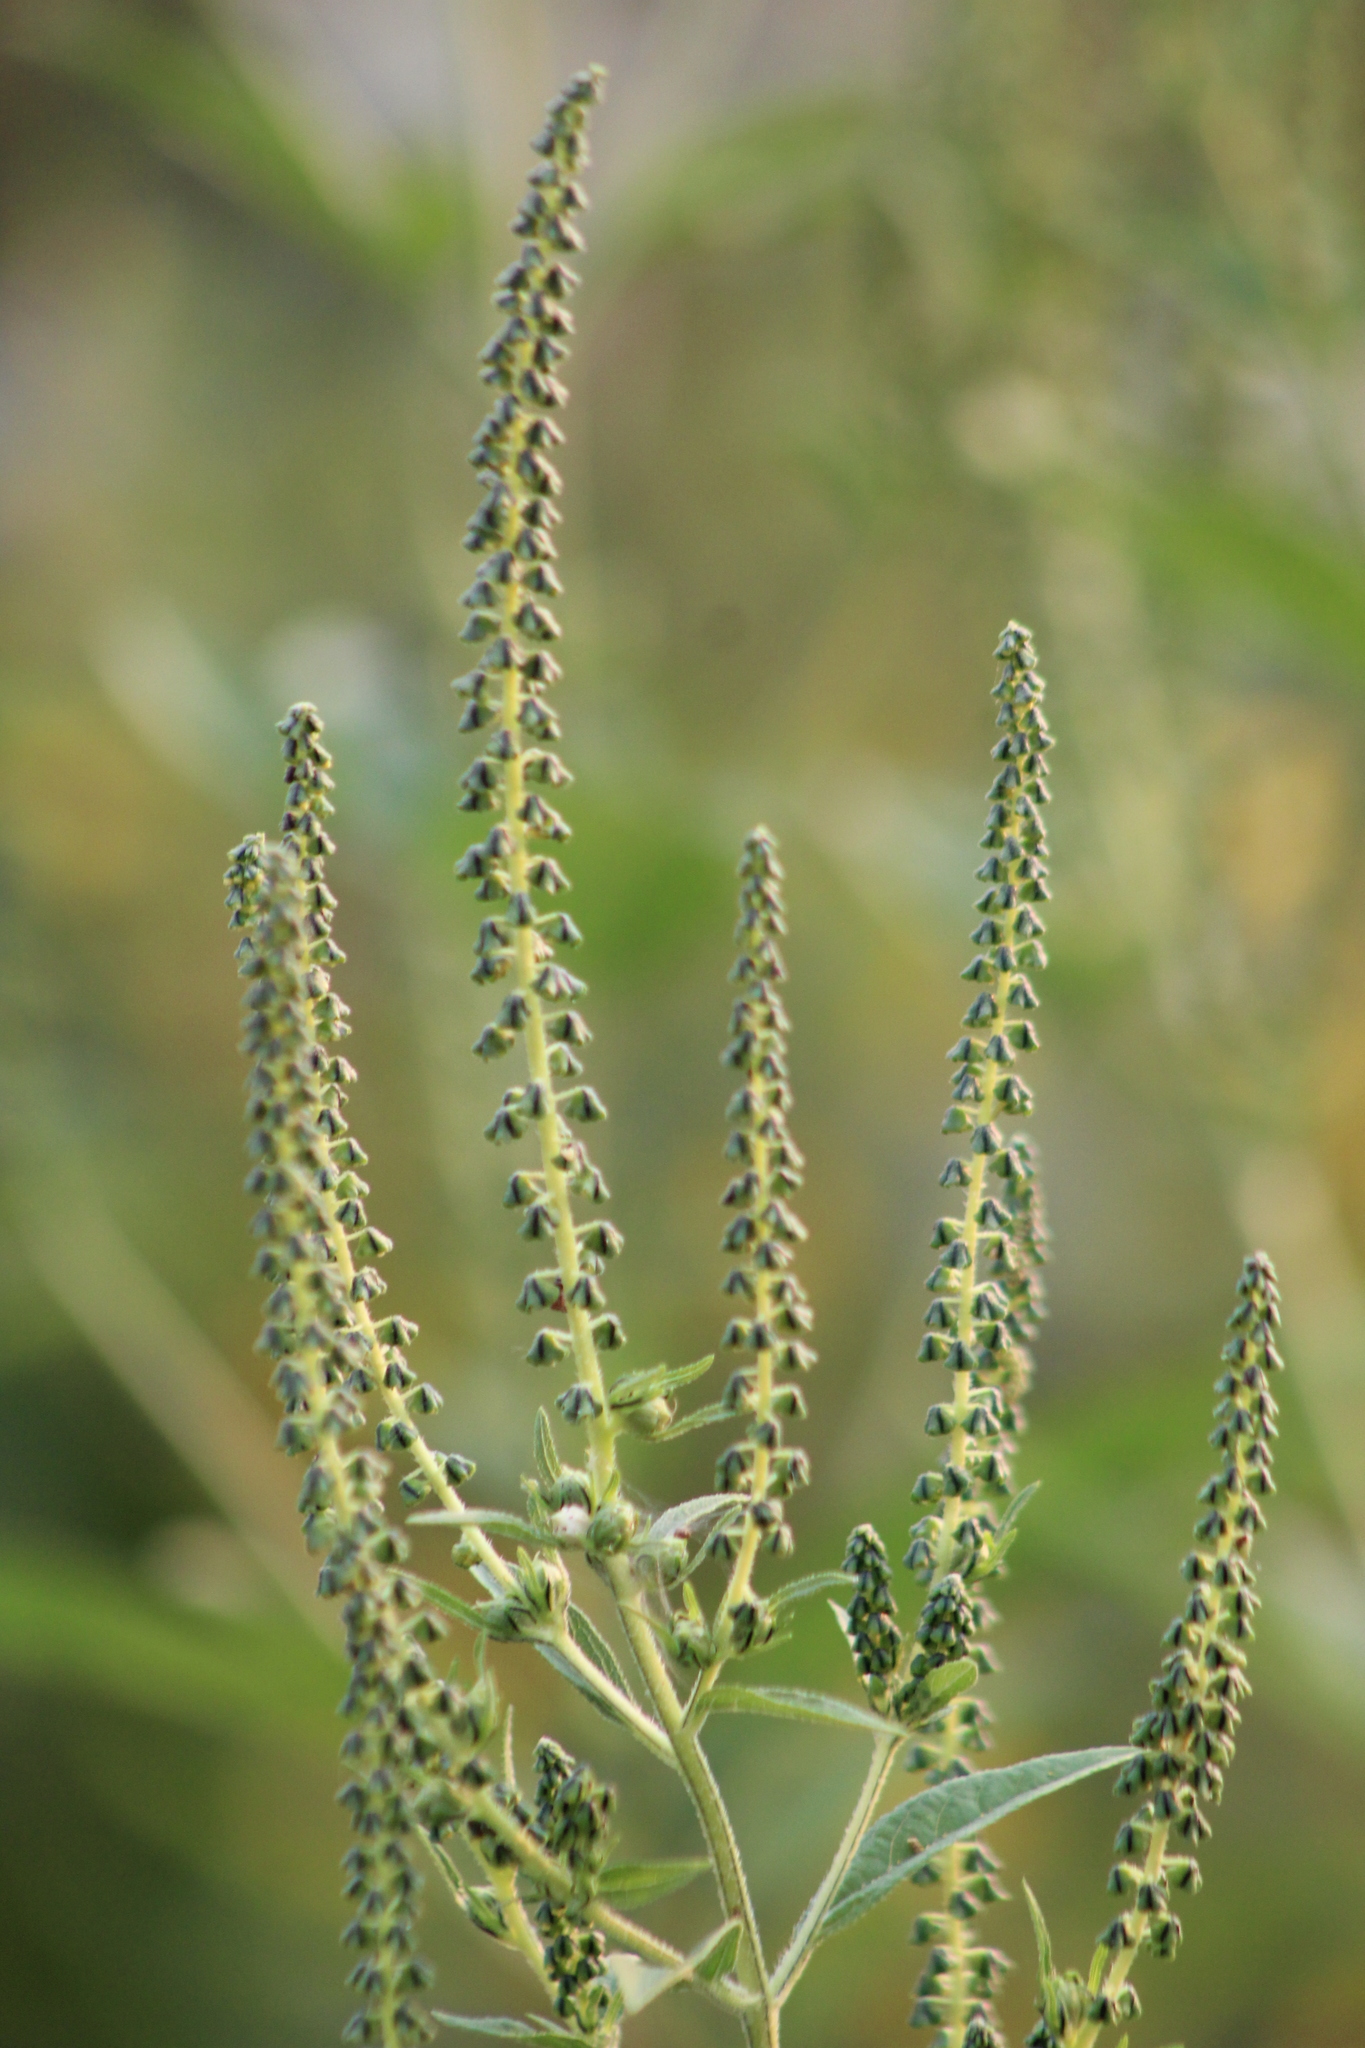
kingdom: Plantae
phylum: Tracheophyta
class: Magnoliopsida
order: Asterales
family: Asteraceae
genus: Ambrosia
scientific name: Ambrosia trifida
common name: Giant ragweed
